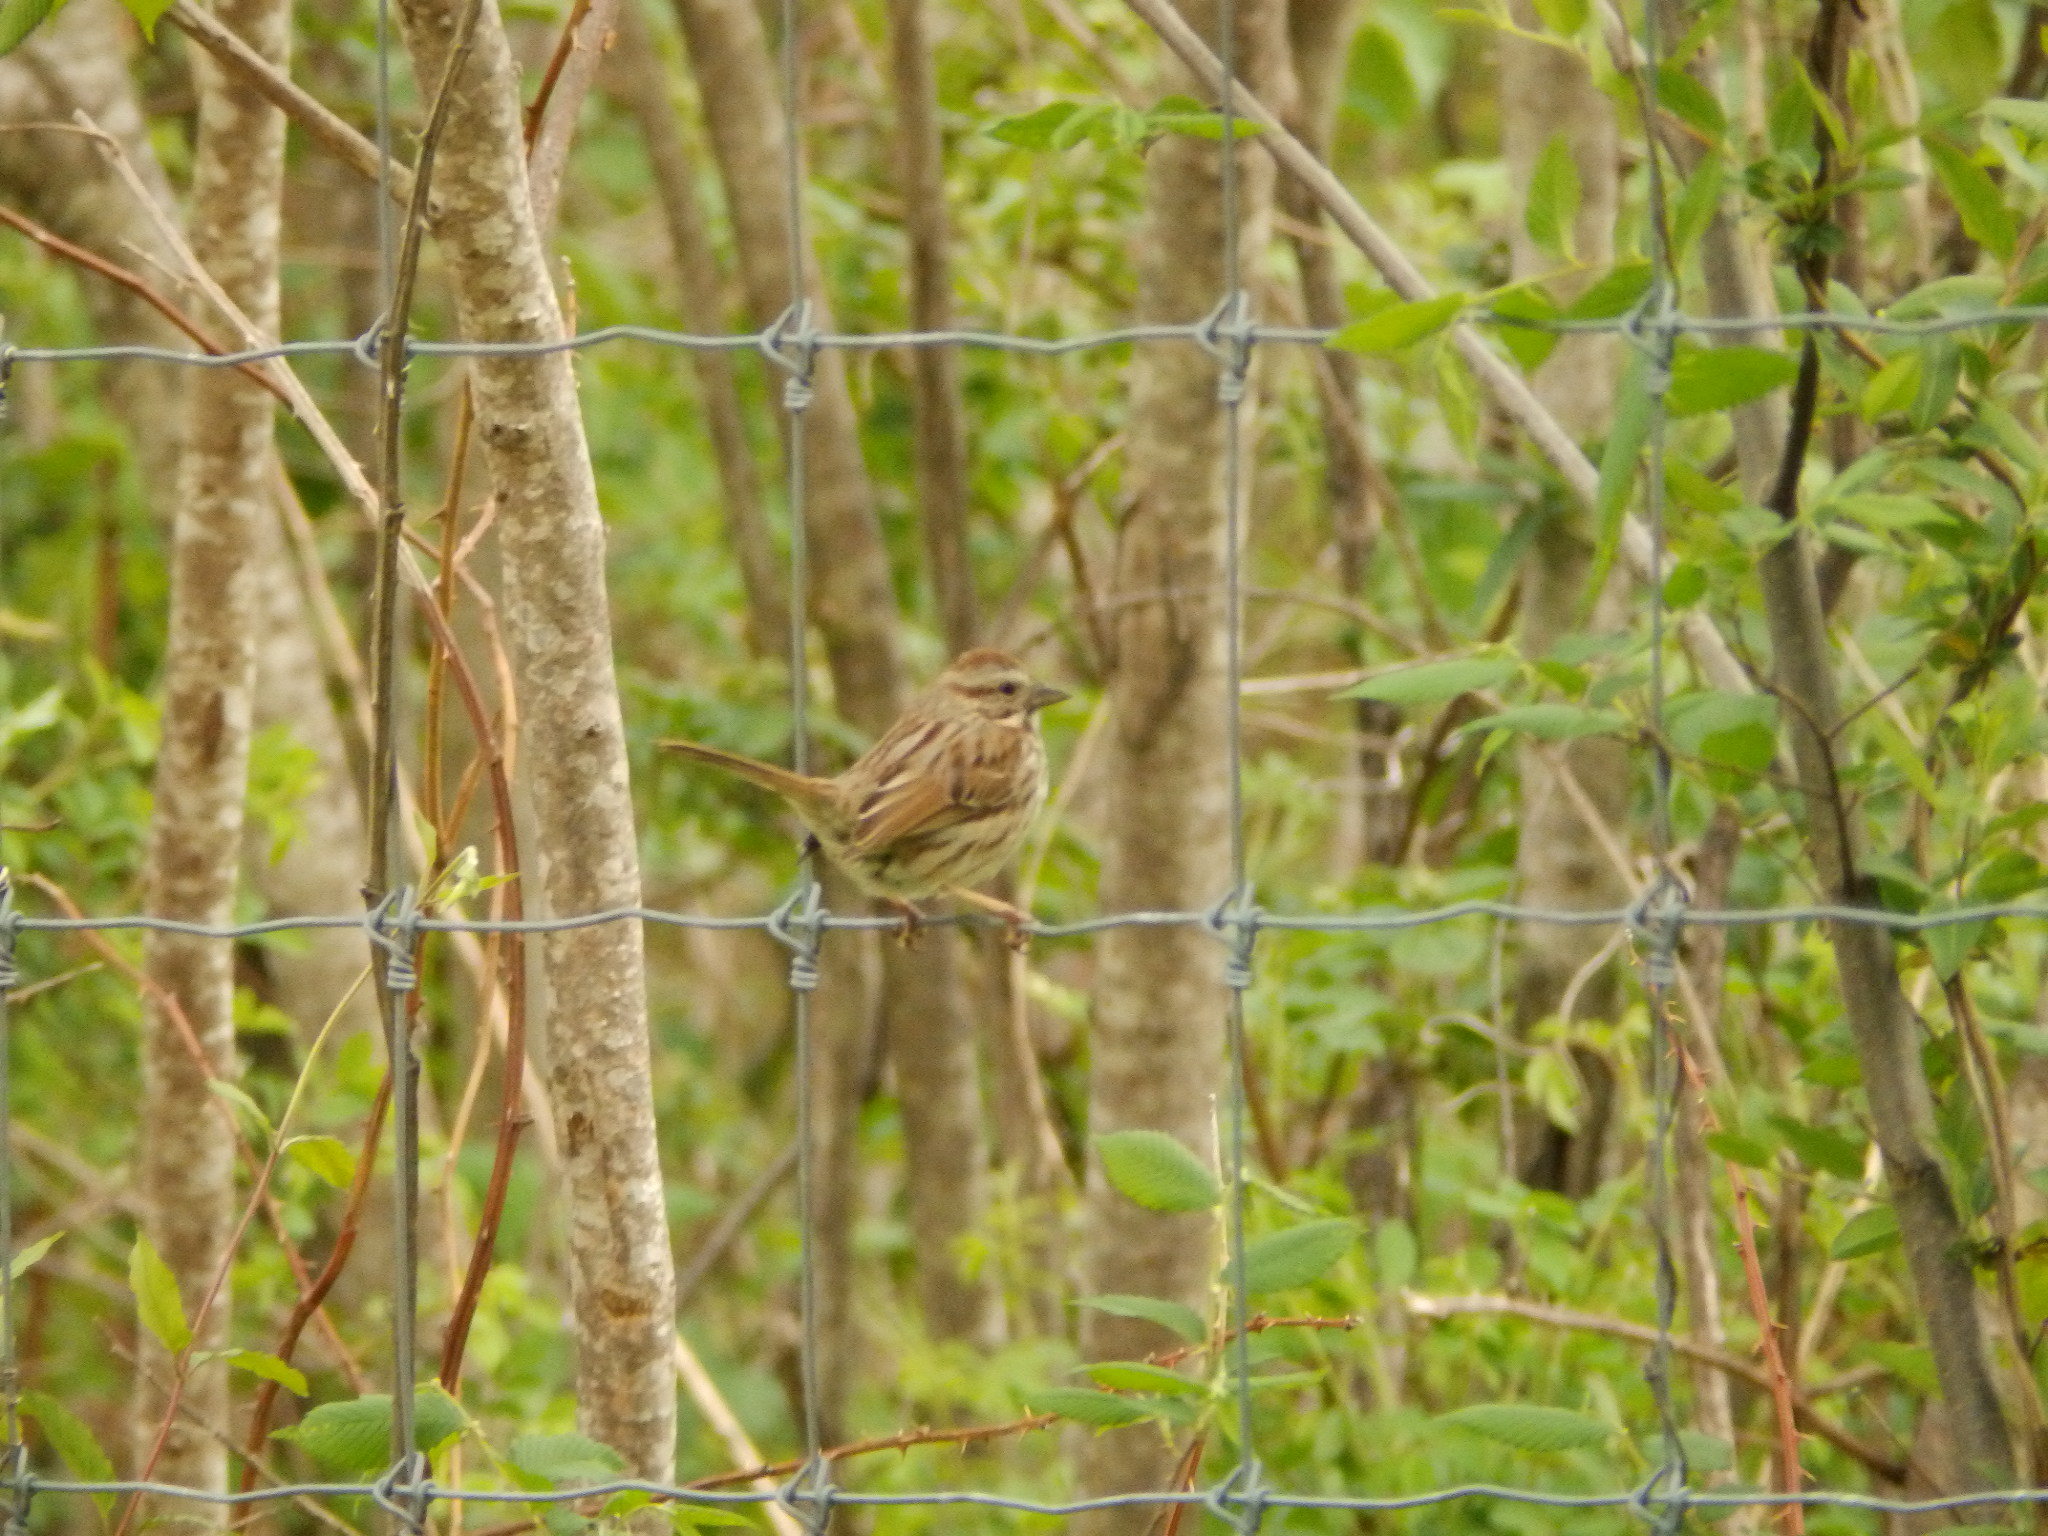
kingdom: Animalia
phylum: Chordata
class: Aves
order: Passeriformes
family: Passerellidae
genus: Melospiza
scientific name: Melospiza melodia
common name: Song sparrow
